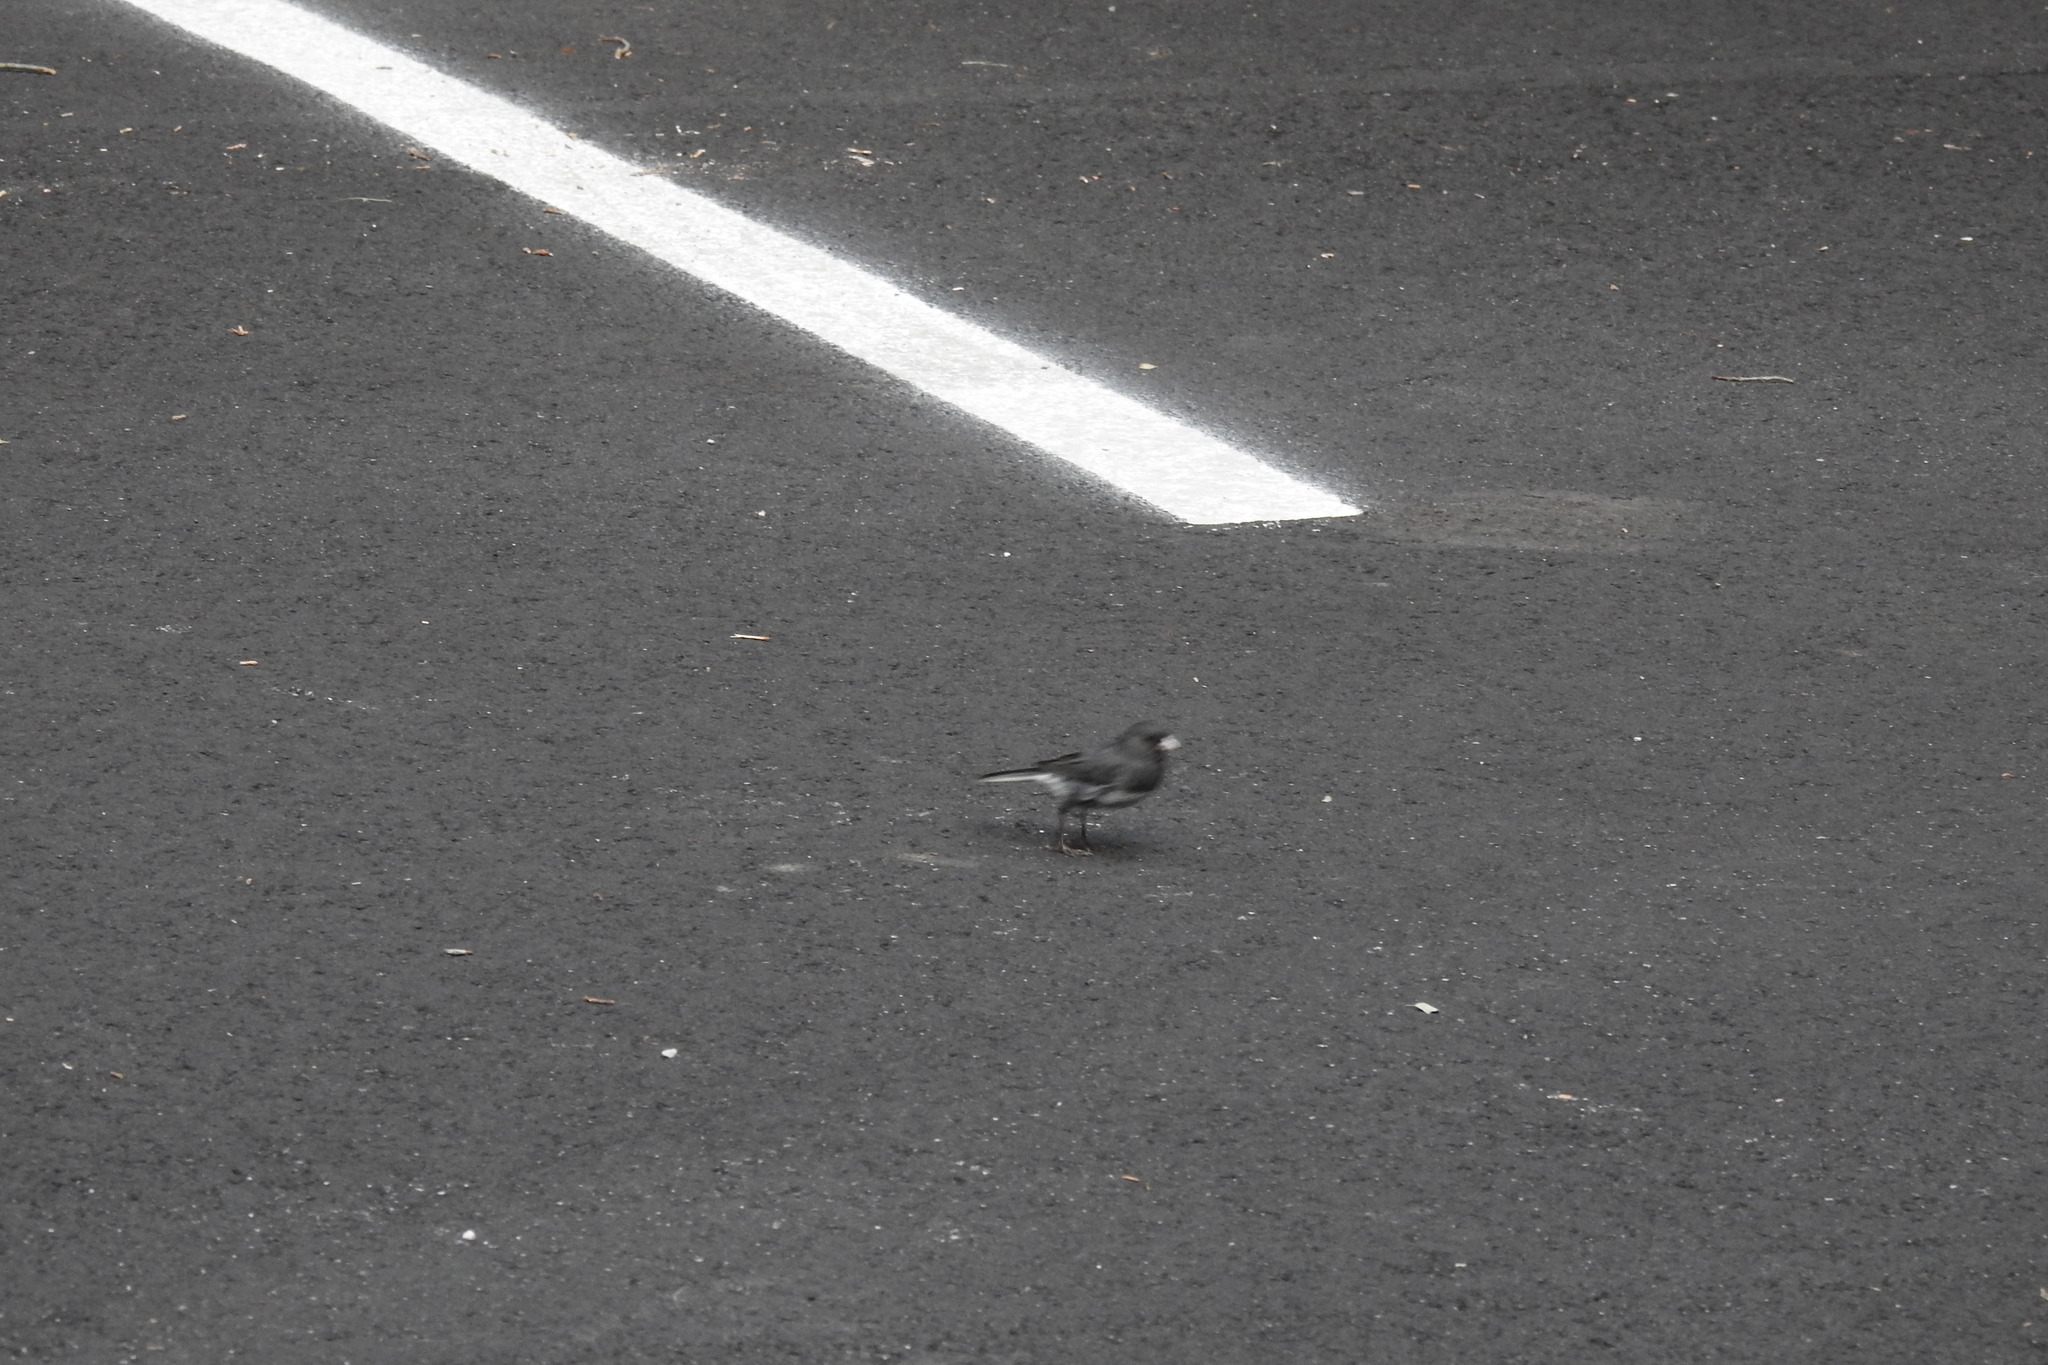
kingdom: Animalia
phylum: Chordata
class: Aves
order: Passeriformes
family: Passerellidae
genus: Junco
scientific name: Junco hyemalis
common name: Dark-eyed junco
